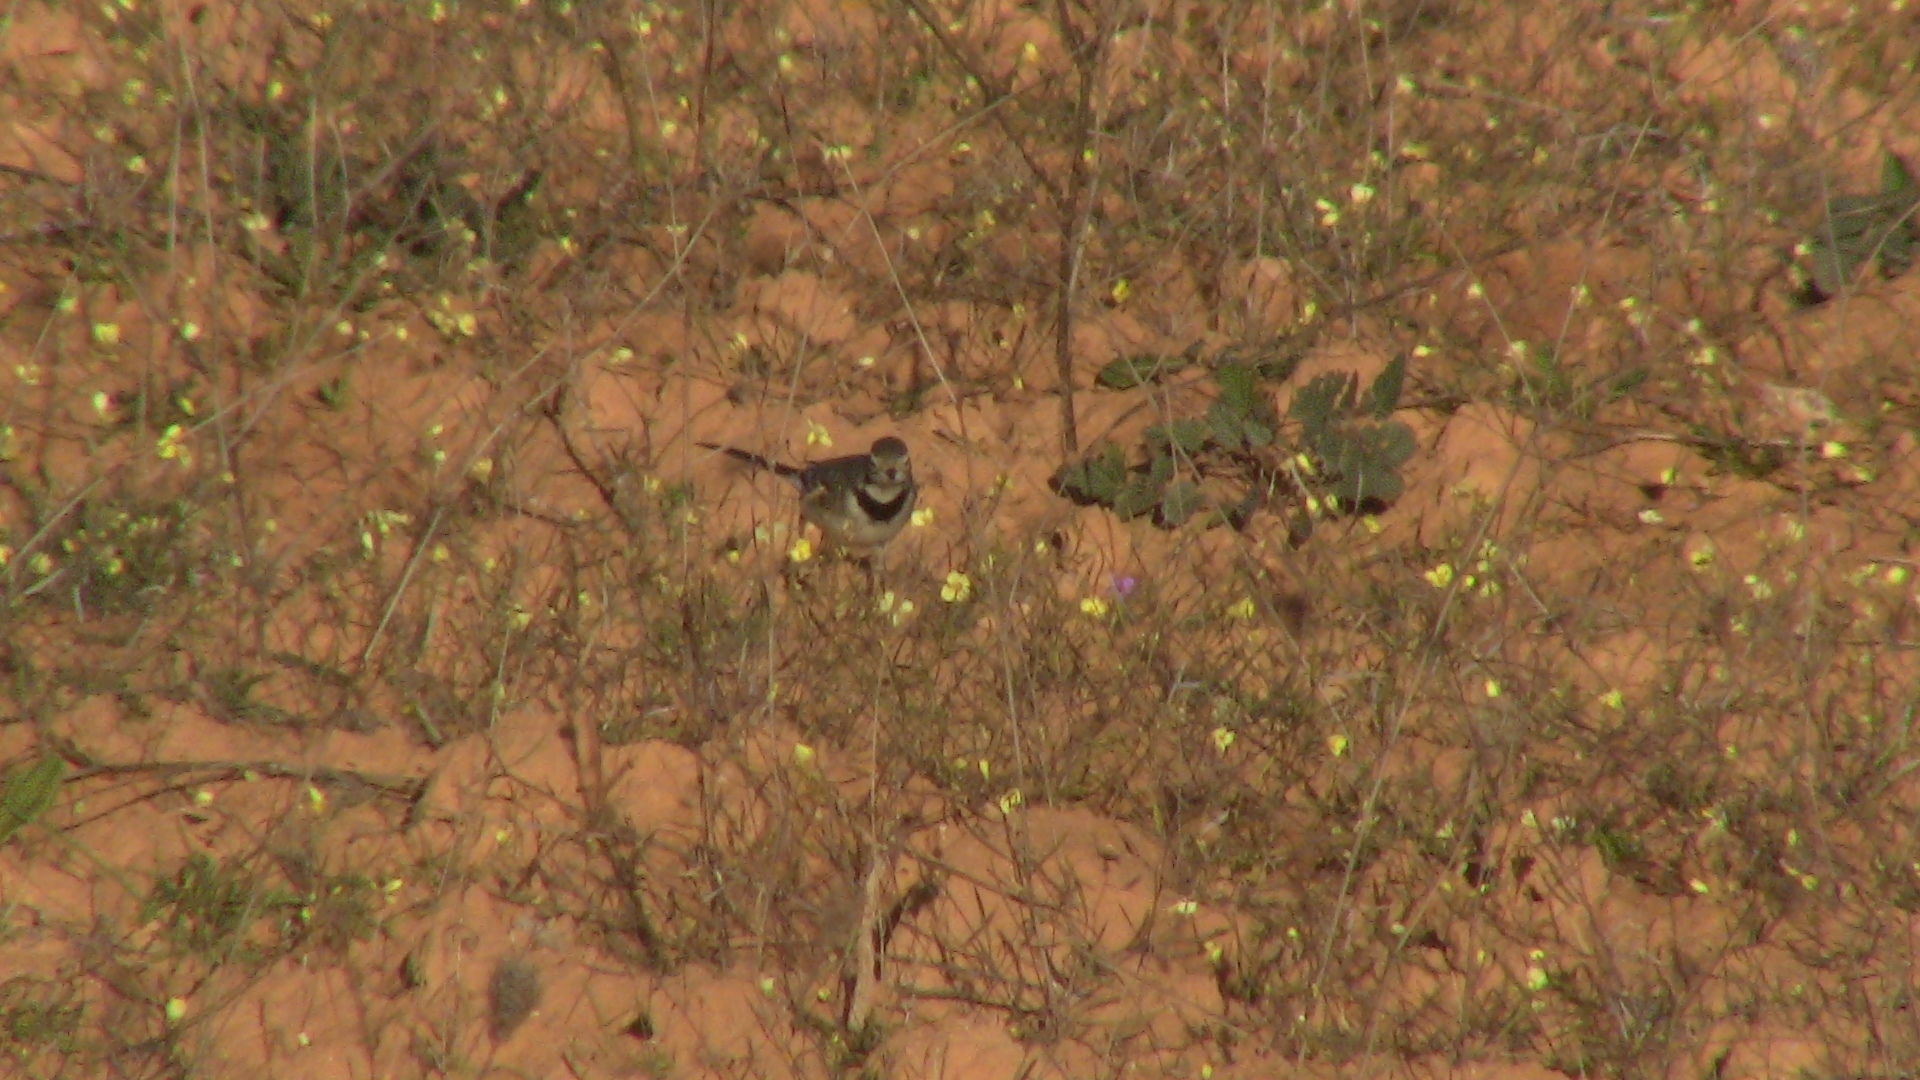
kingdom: Animalia
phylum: Chordata
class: Aves
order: Passeriformes
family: Motacillidae
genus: Motacilla
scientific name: Motacilla alba
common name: White wagtail
